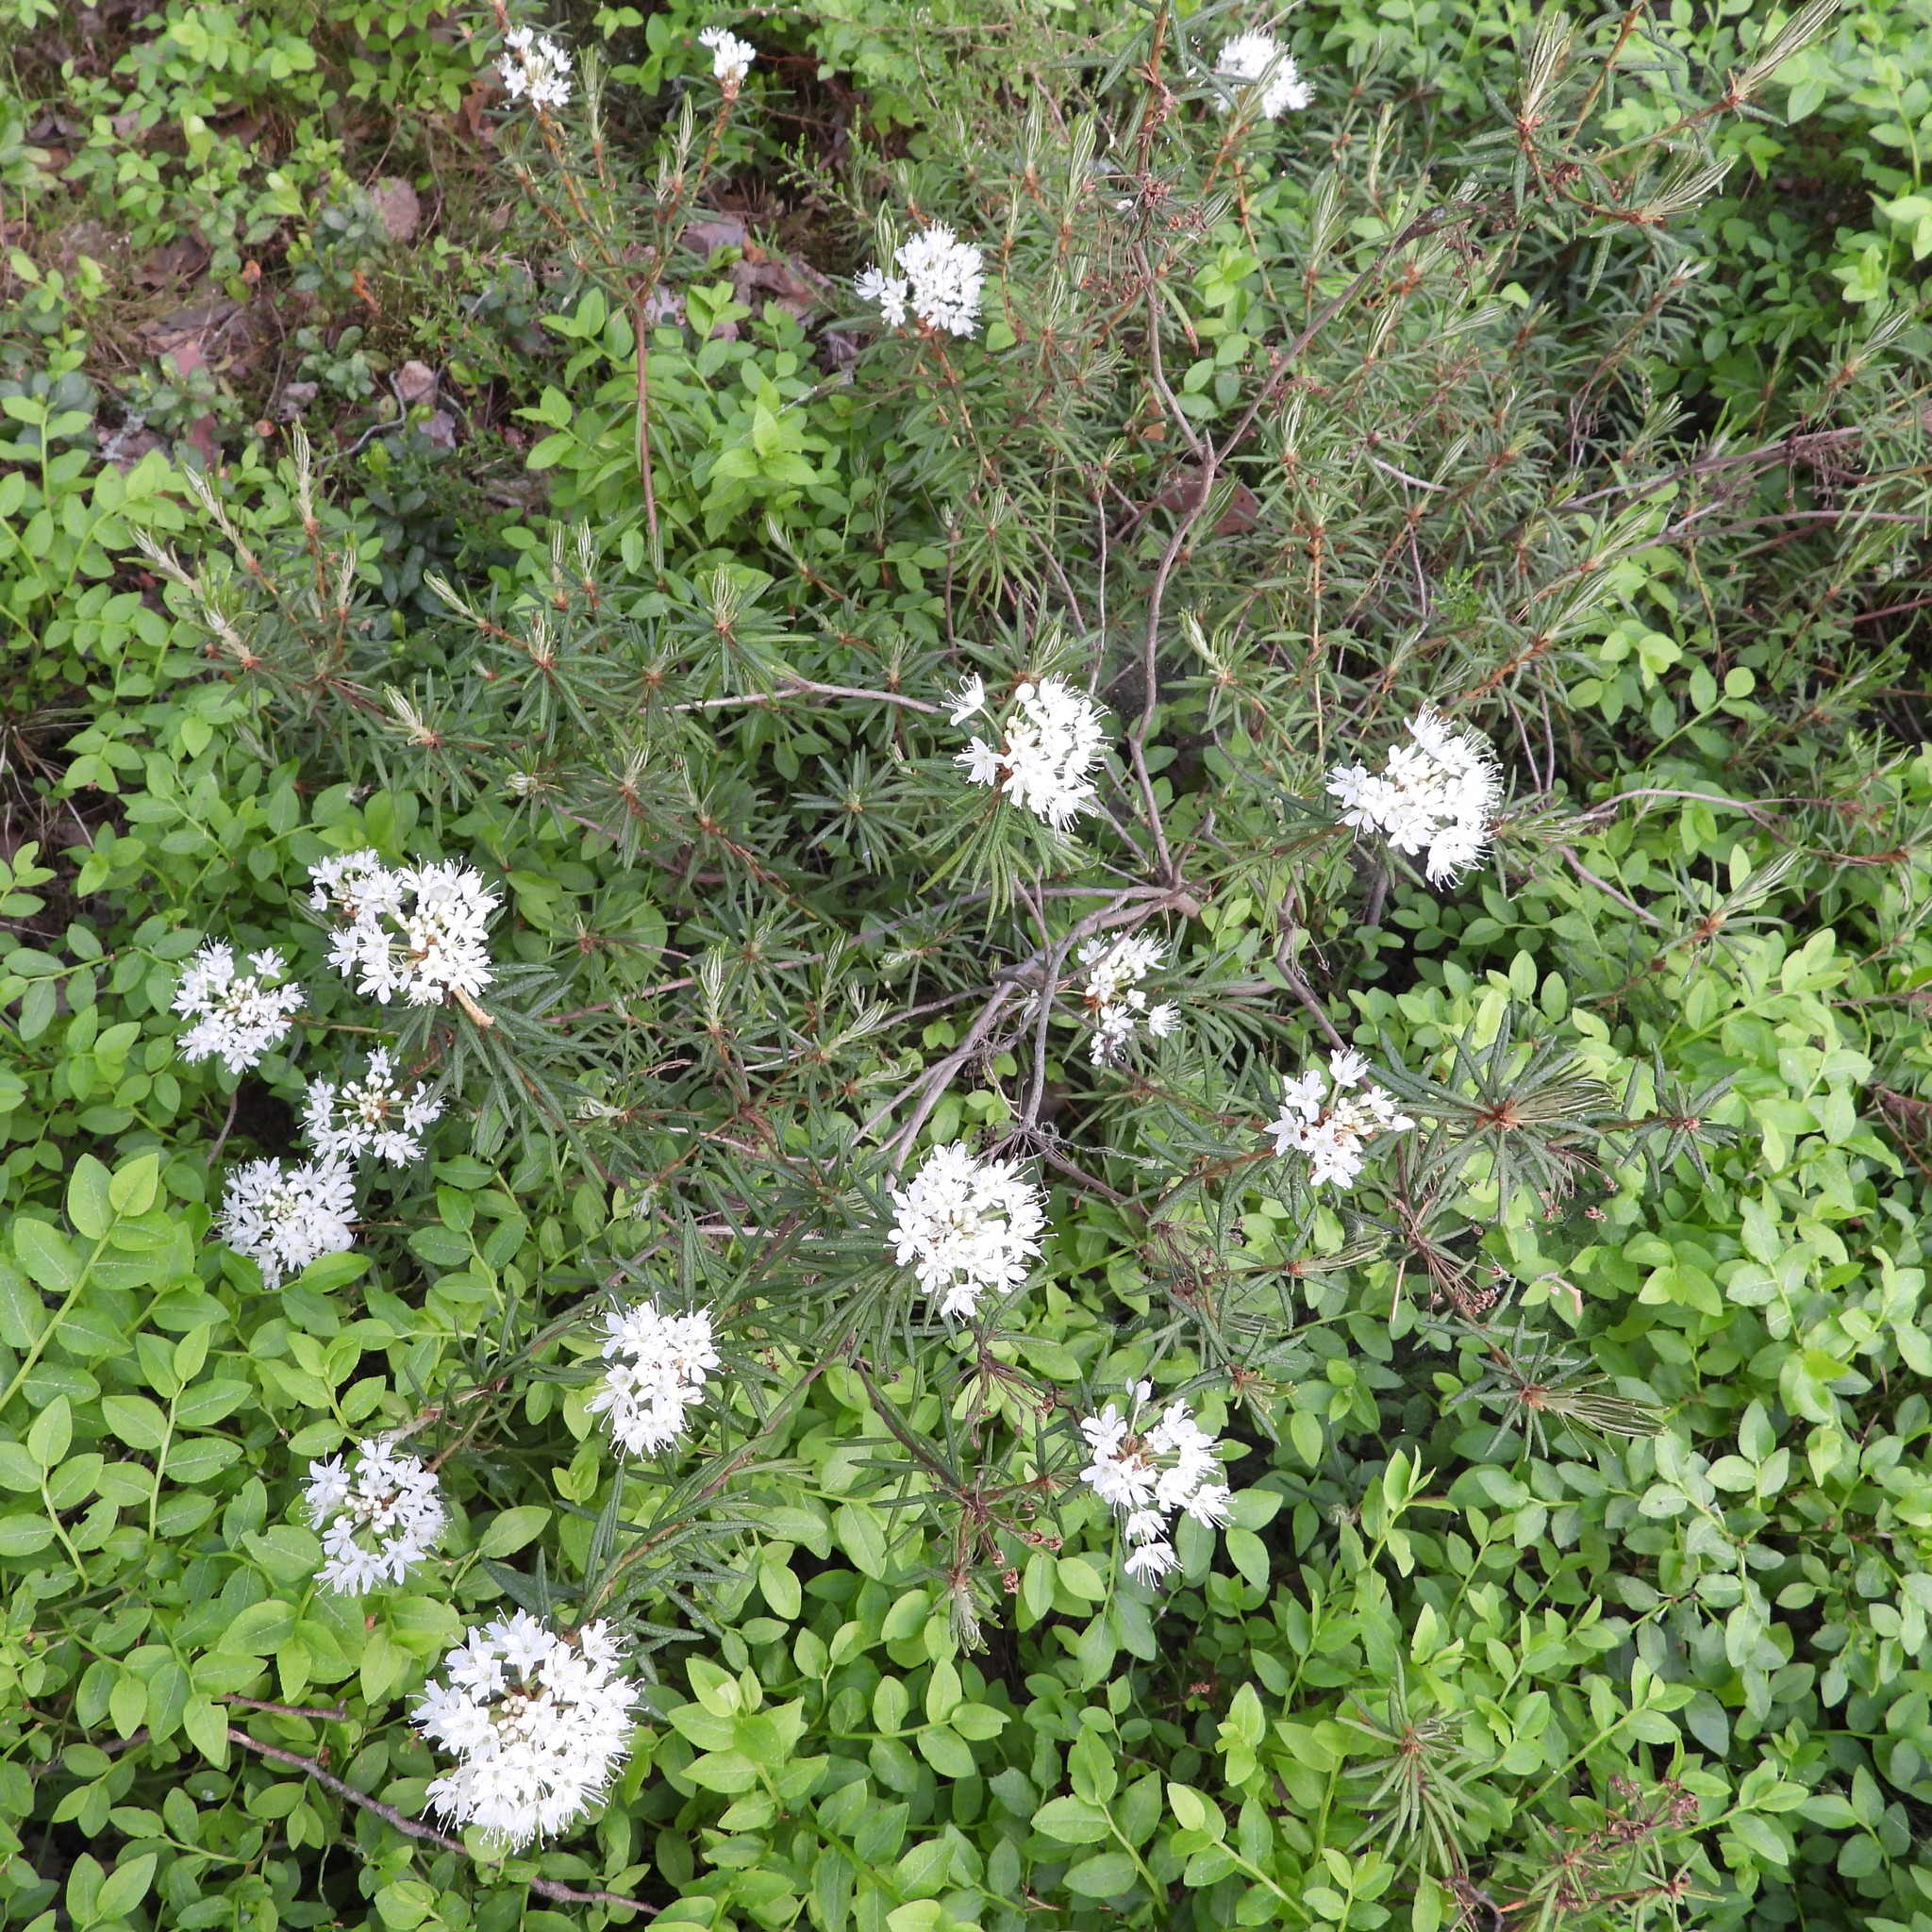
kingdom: Plantae
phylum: Tracheophyta
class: Magnoliopsida
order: Ericales
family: Ericaceae
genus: Rhododendron
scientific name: Rhododendron tomentosum
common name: Marsh labrador tea
